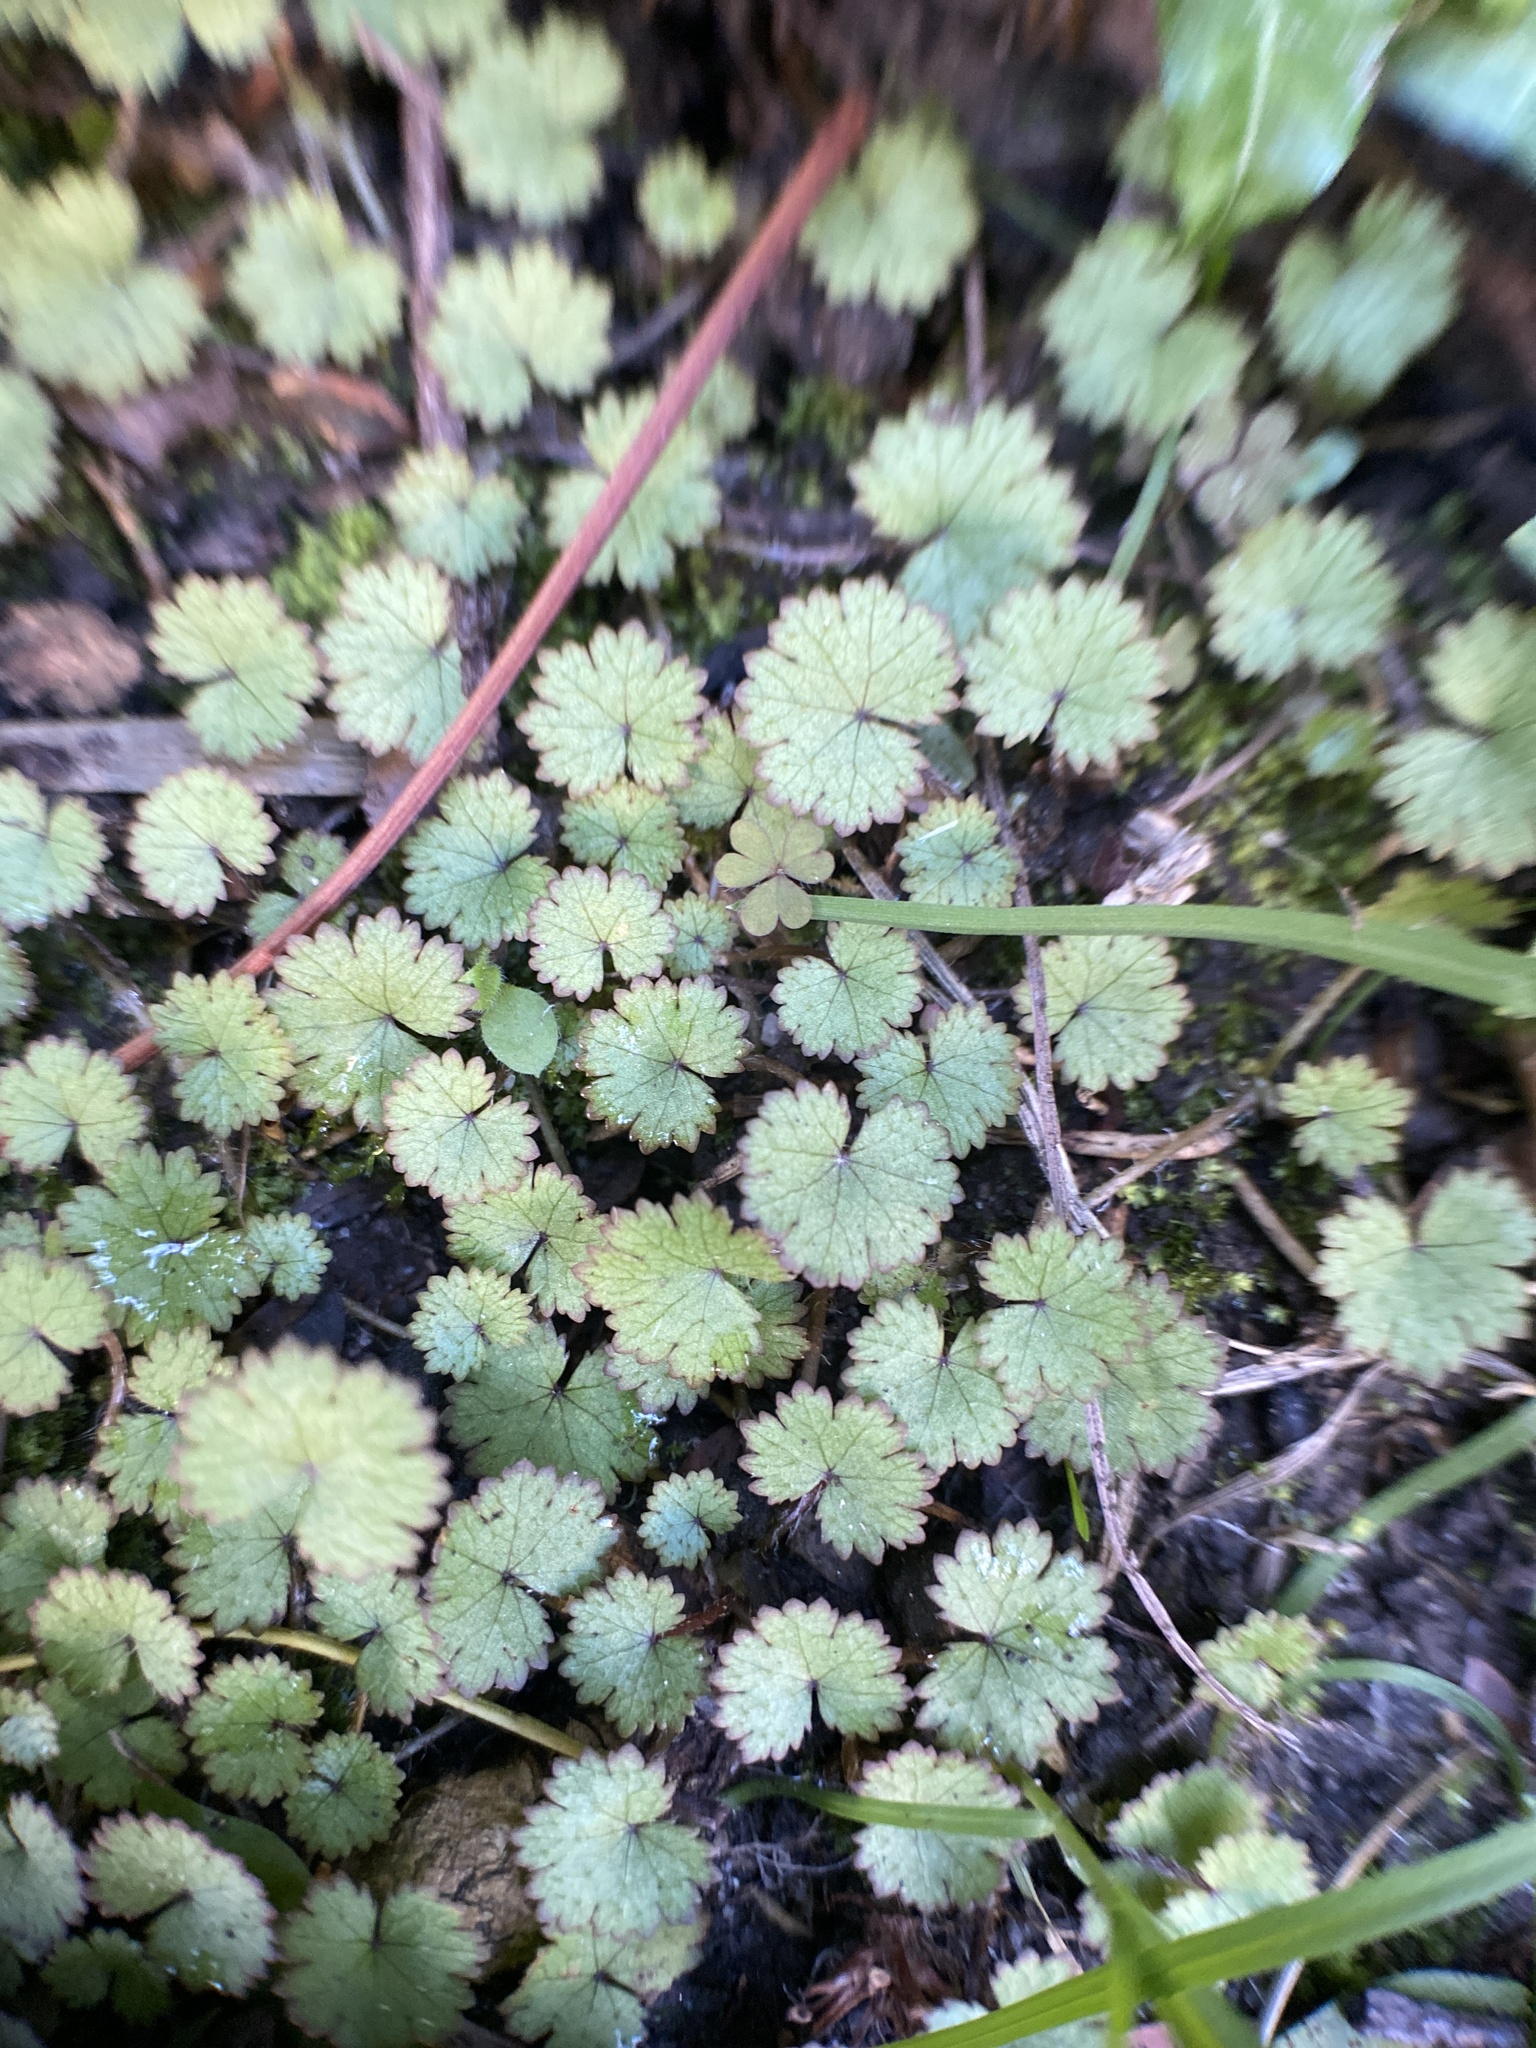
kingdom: Plantae
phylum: Tracheophyta
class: Magnoliopsida
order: Apiales
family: Araliaceae
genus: Hydrocotyle
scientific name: Hydrocotyle moschata
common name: Hairy pennywort
